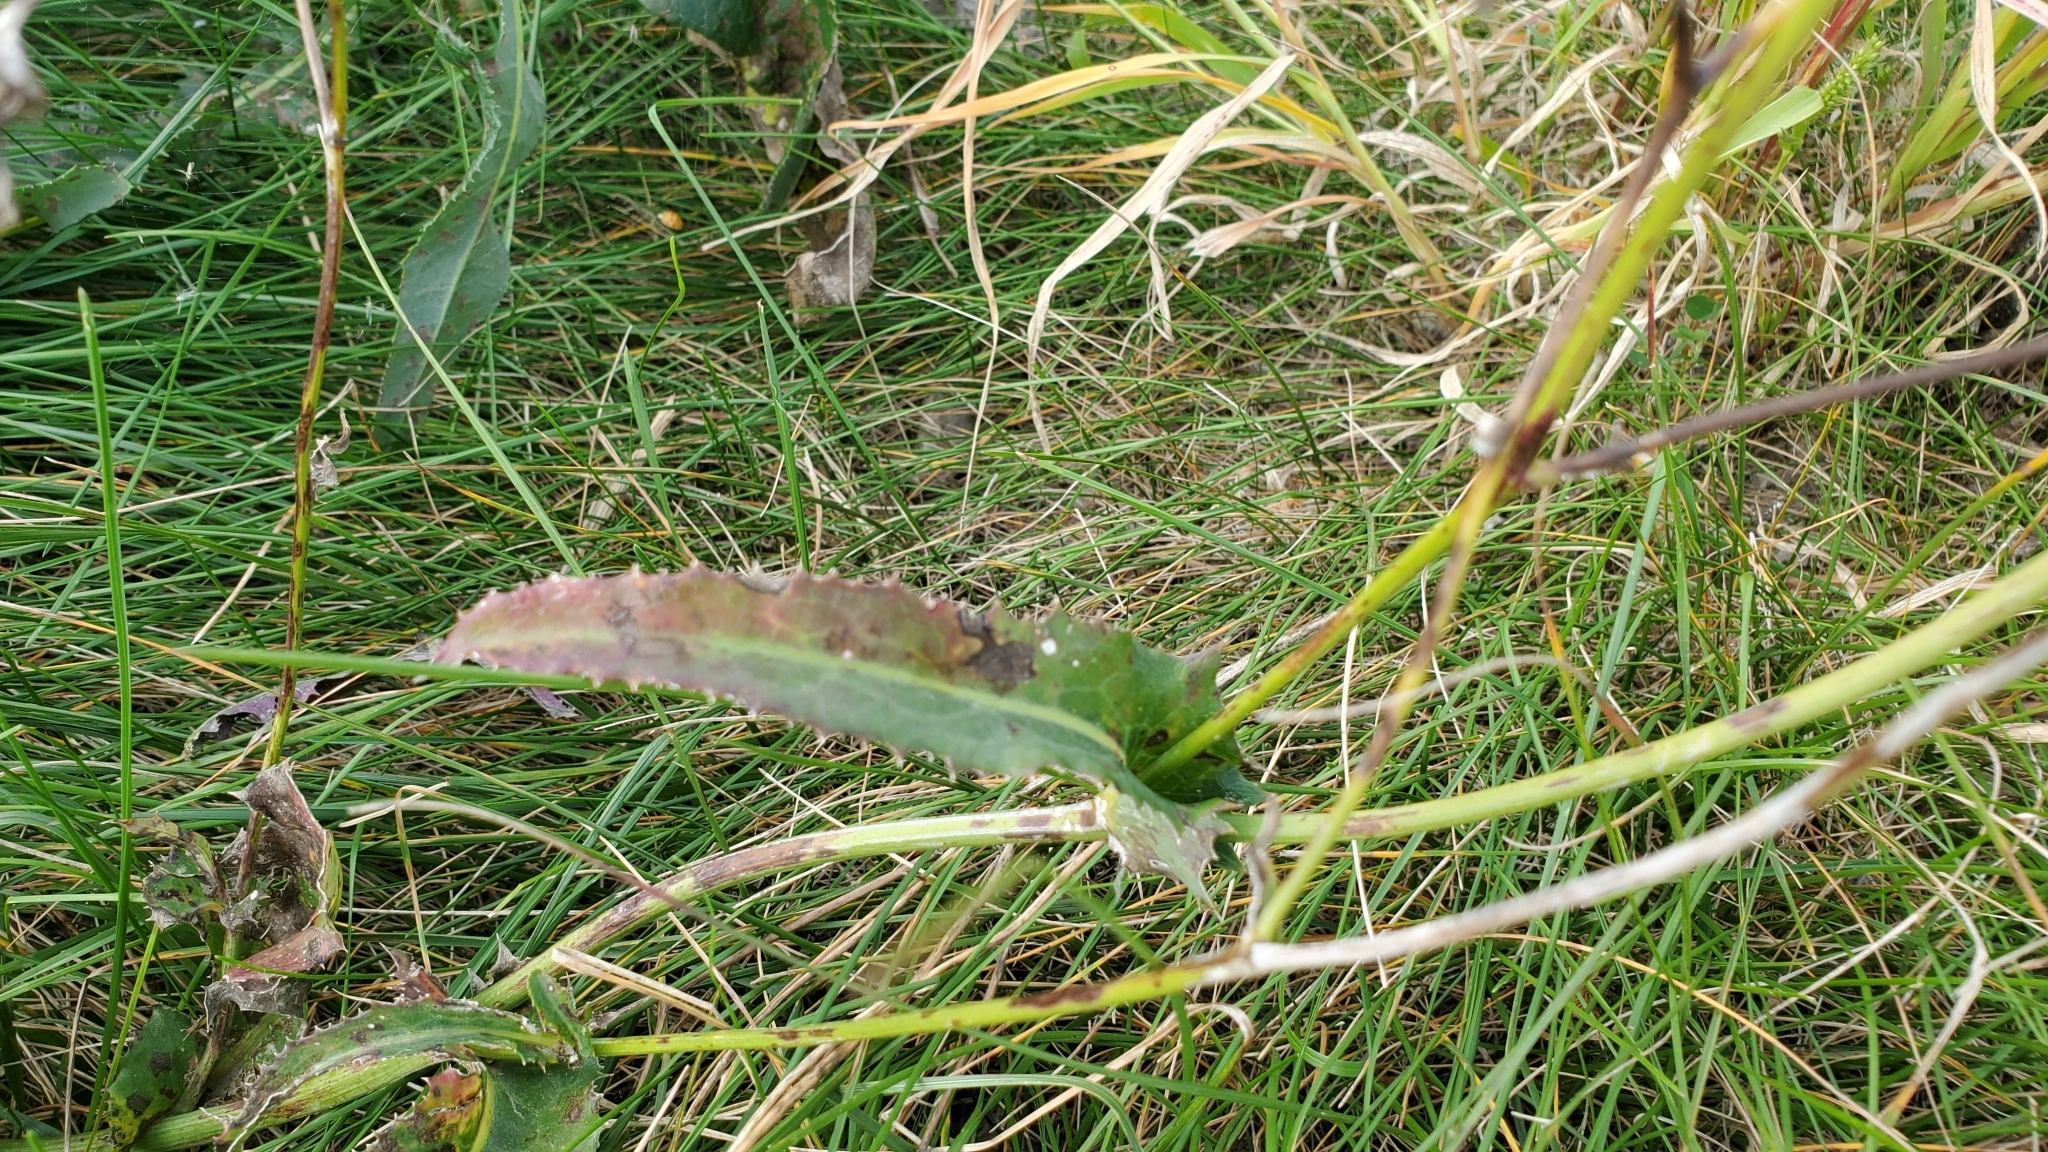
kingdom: Plantae
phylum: Tracheophyta
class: Magnoliopsida
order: Asterales
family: Asteraceae
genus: Sonchus
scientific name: Sonchus arvensis
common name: Perennial sow-thistle
